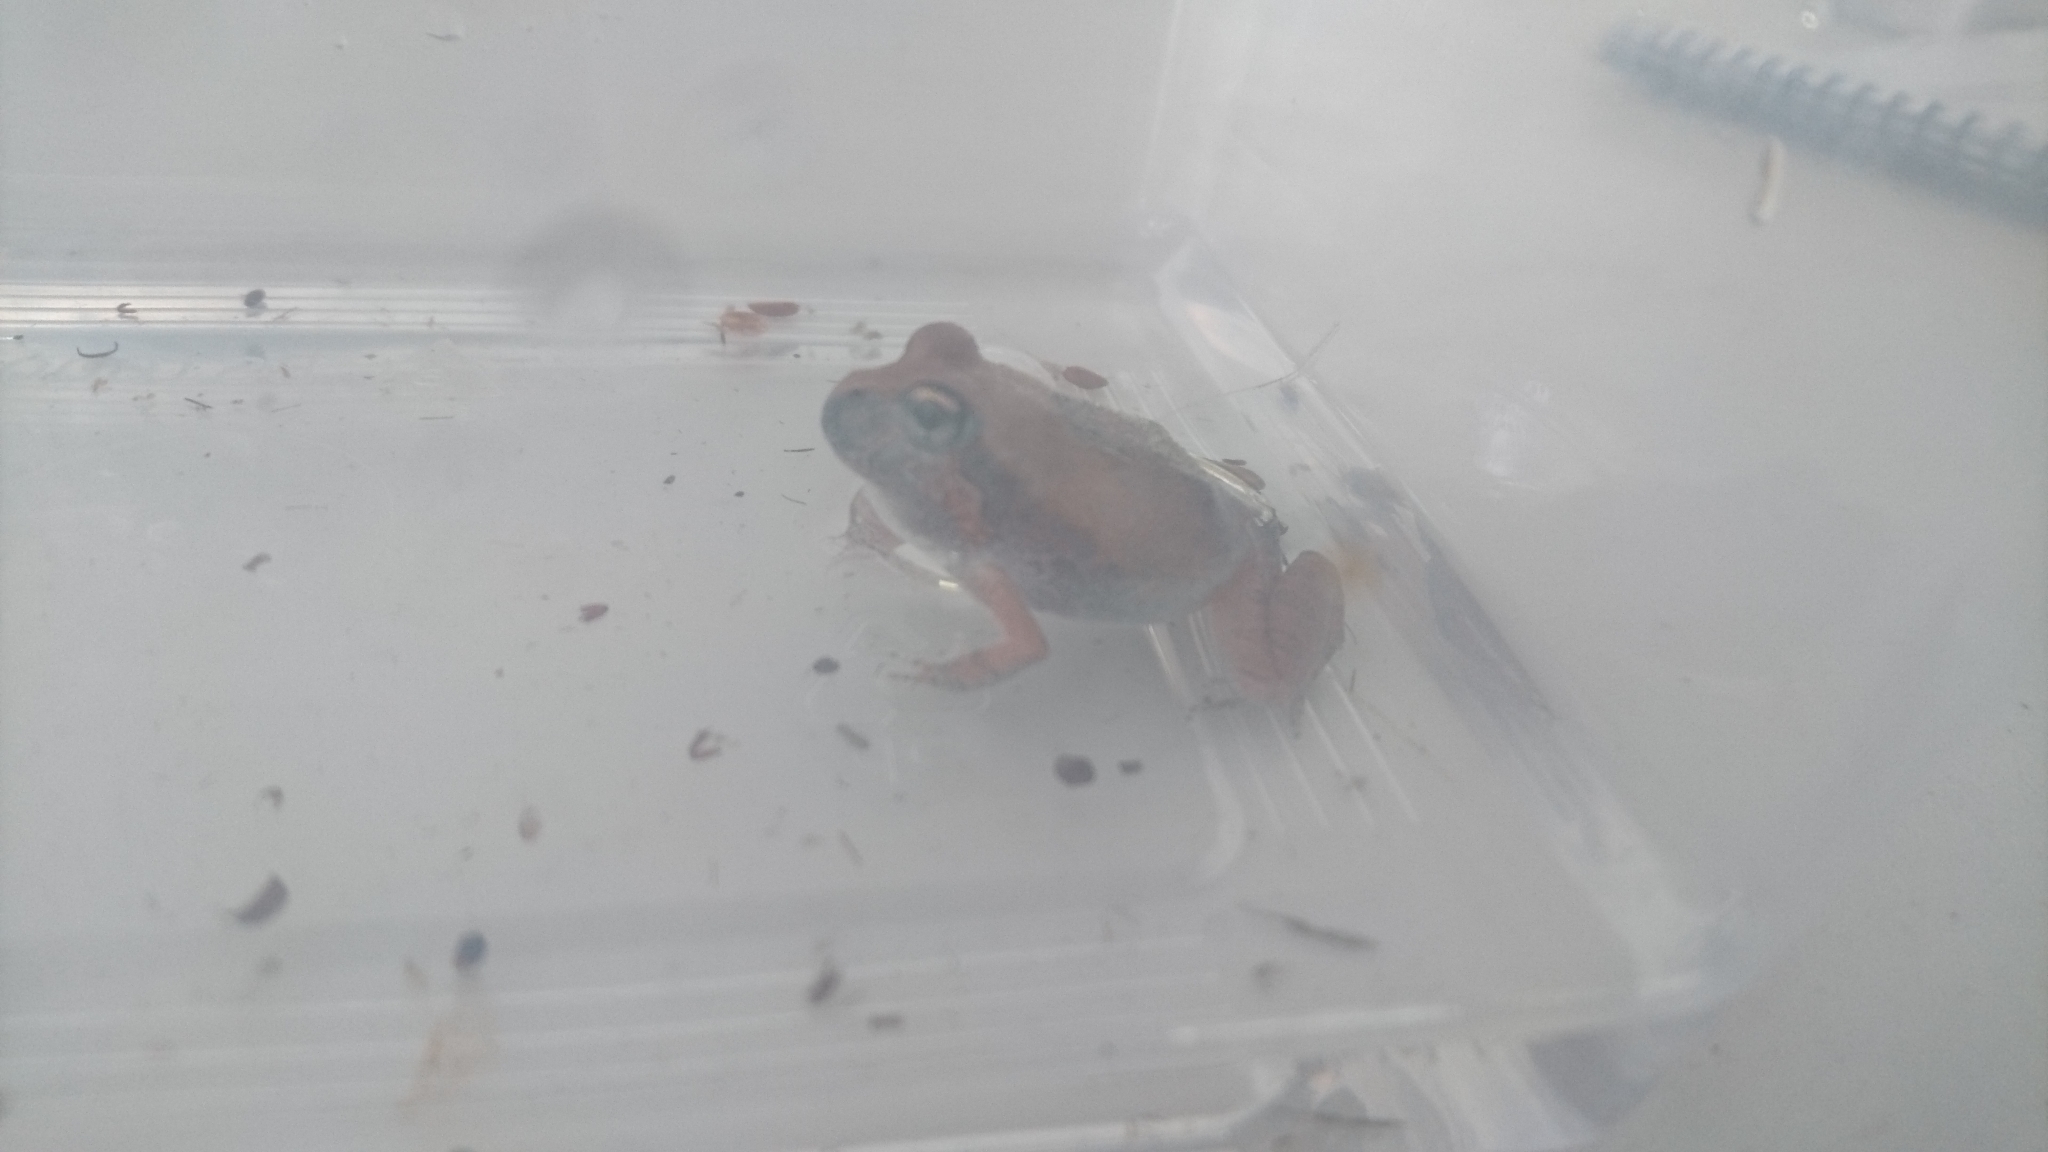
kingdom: Animalia
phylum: Chordata
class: Amphibia
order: Anura
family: Limnodynastidae
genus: Platyplectrum
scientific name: Platyplectrum ornatum
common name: Ornate burrowing frog
